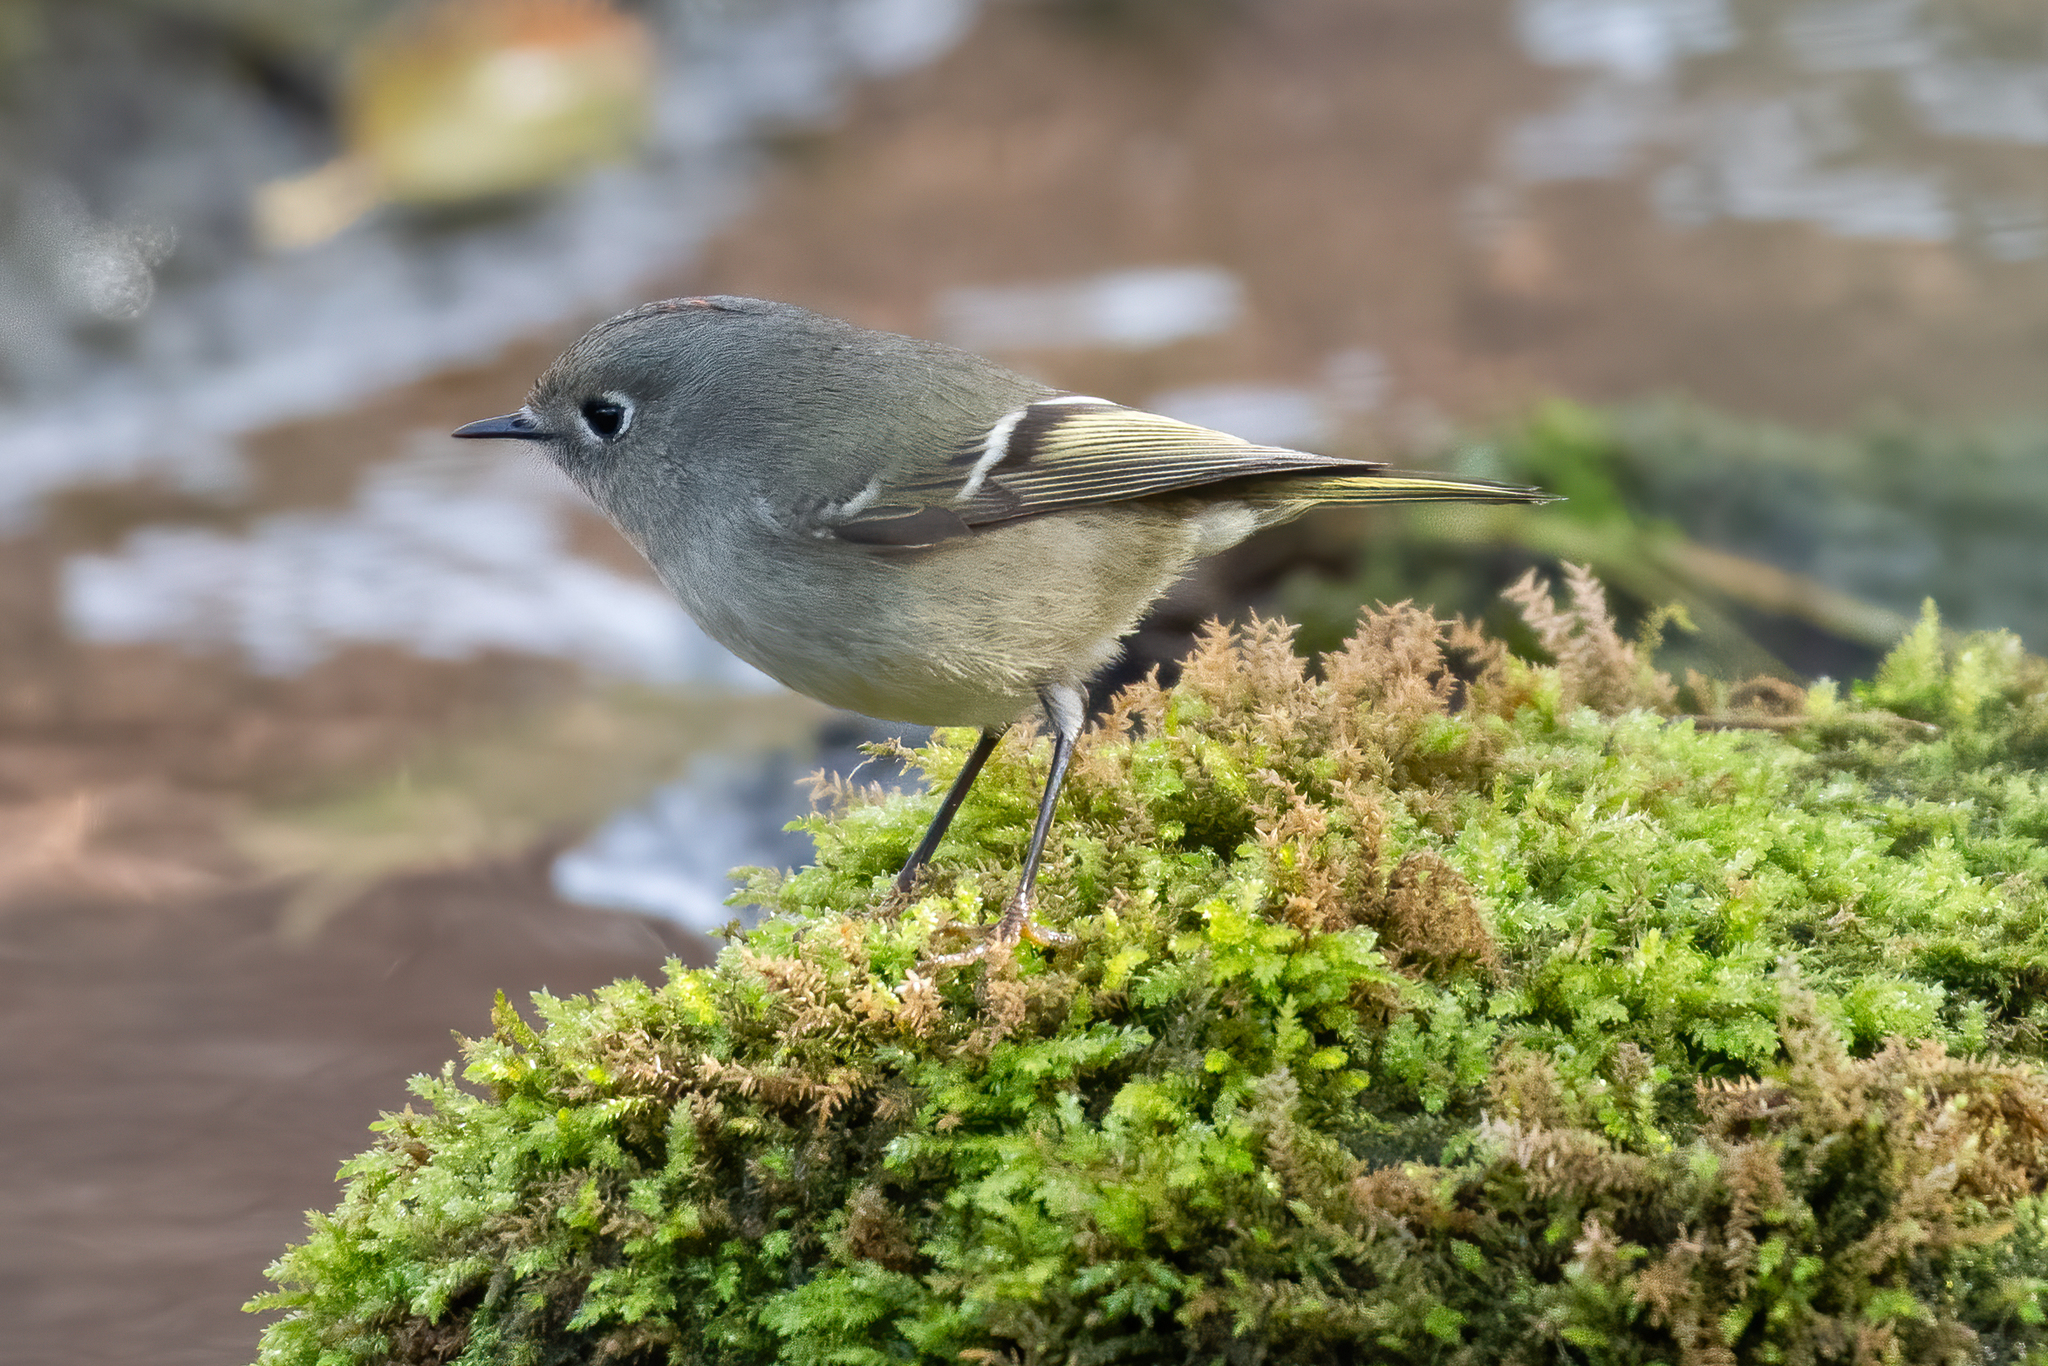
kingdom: Animalia
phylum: Chordata
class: Aves
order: Passeriformes
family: Regulidae
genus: Regulus
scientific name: Regulus calendula
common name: Ruby-crowned kinglet
